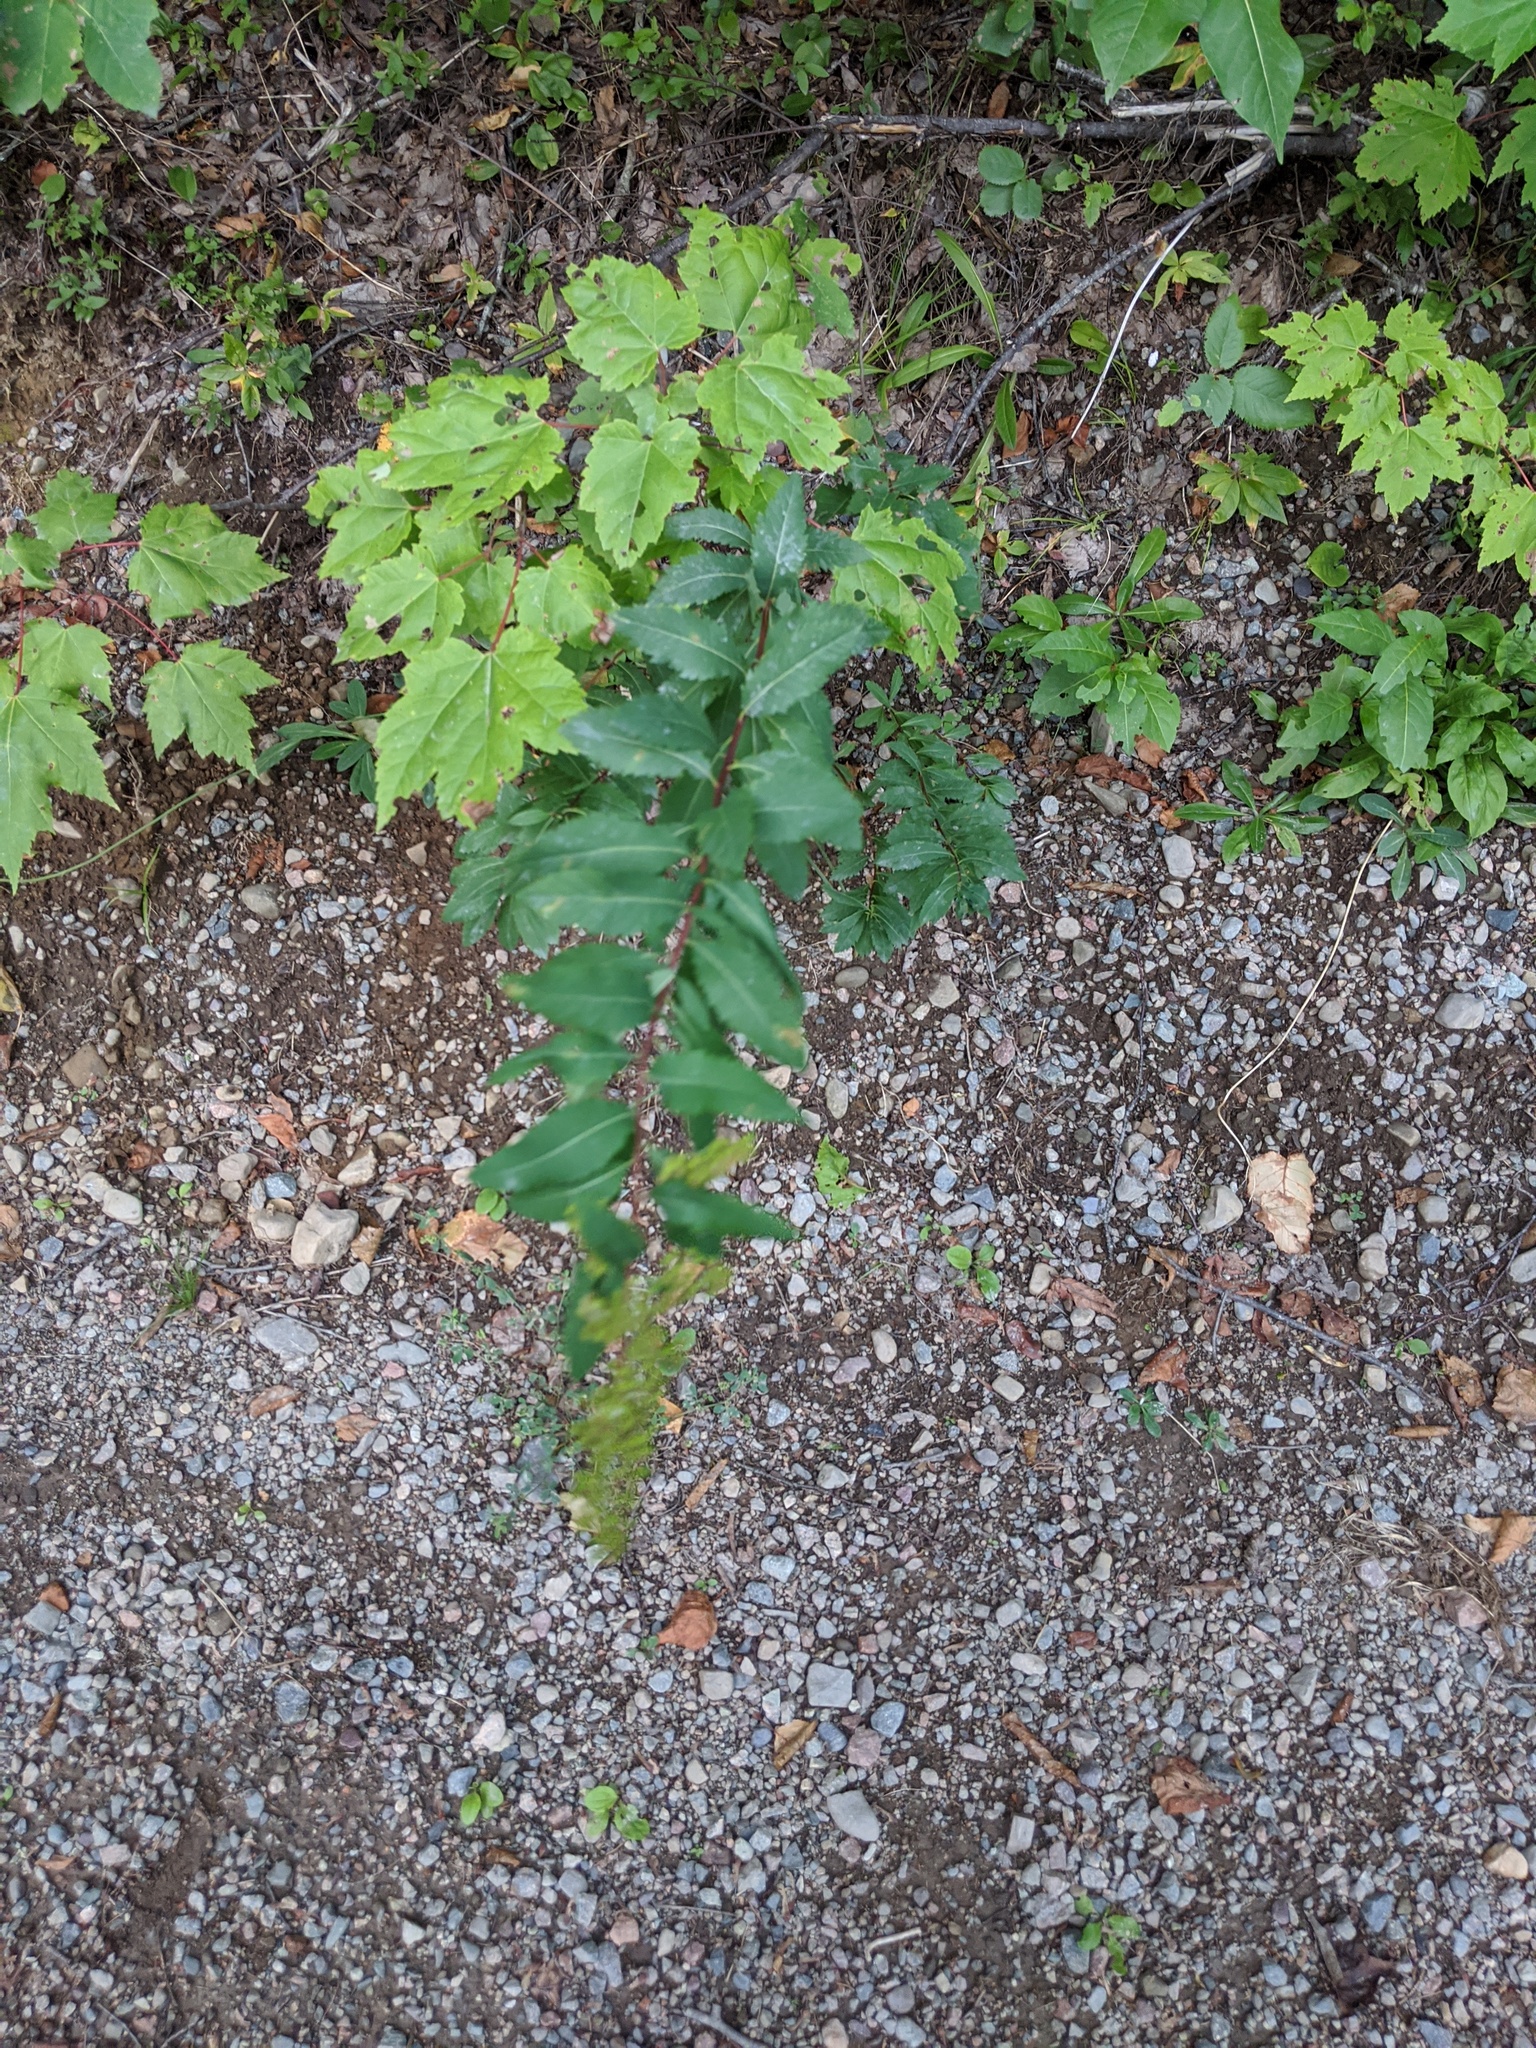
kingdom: Plantae
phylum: Tracheophyta
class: Magnoliopsida
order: Rosales
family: Rosaceae
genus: Spiraea
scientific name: Spiraea alba
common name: Pale bridewort
